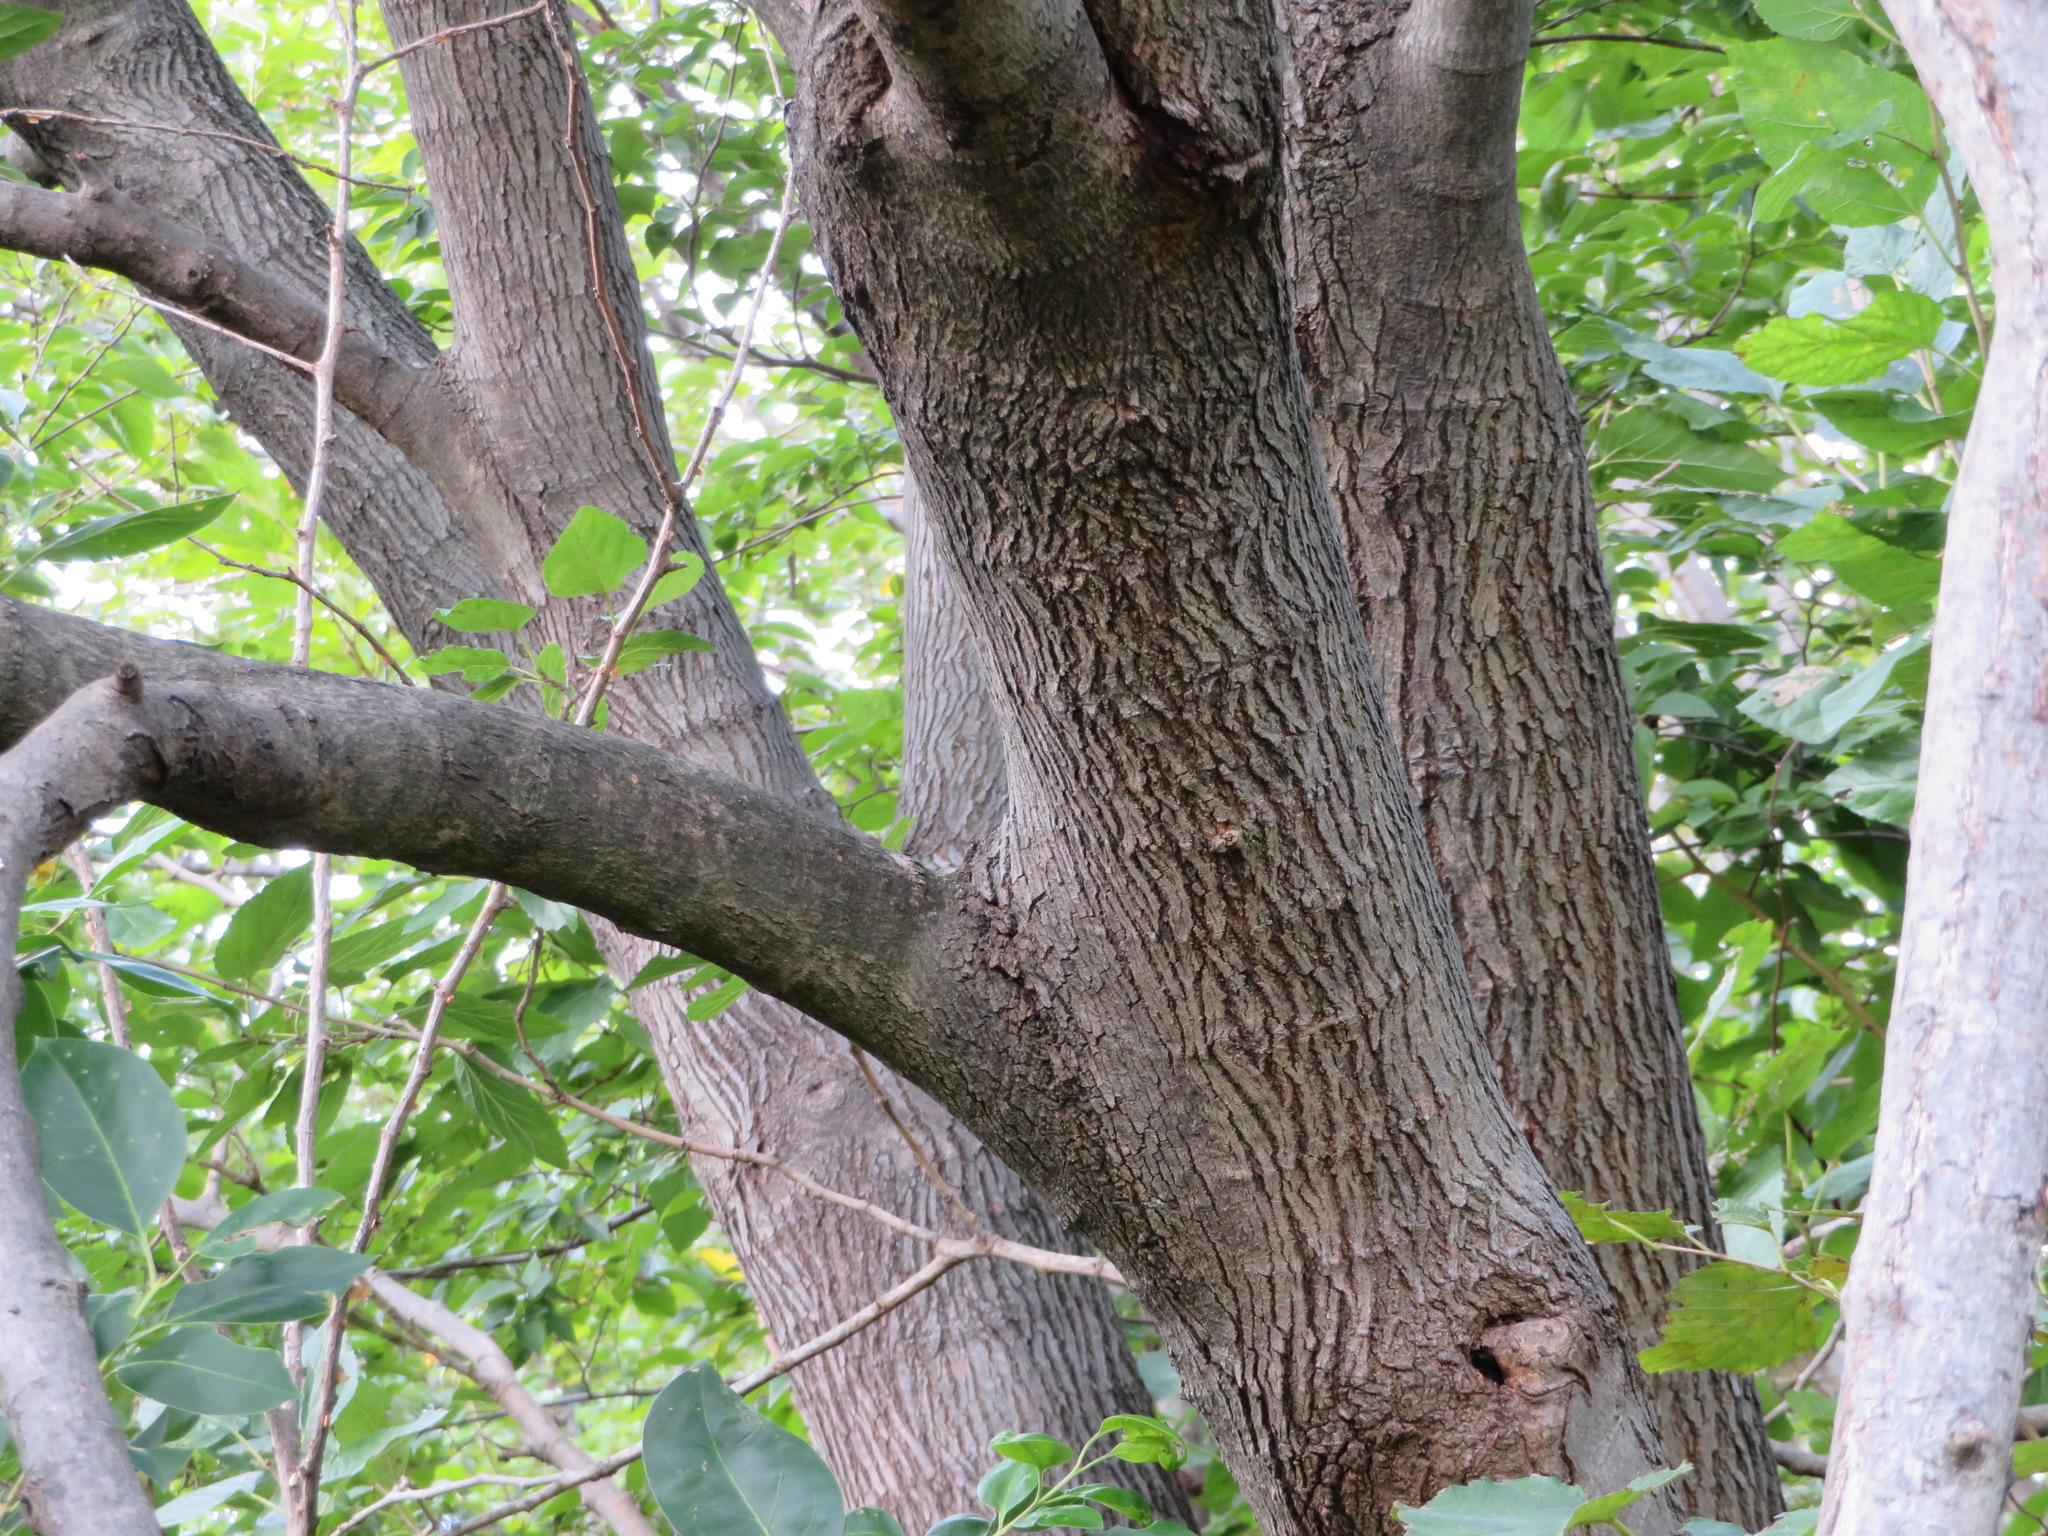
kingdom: Plantae
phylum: Tracheophyta
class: Magnoliopsida
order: Rosales
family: Moraceae
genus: Morus
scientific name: Morus indica
